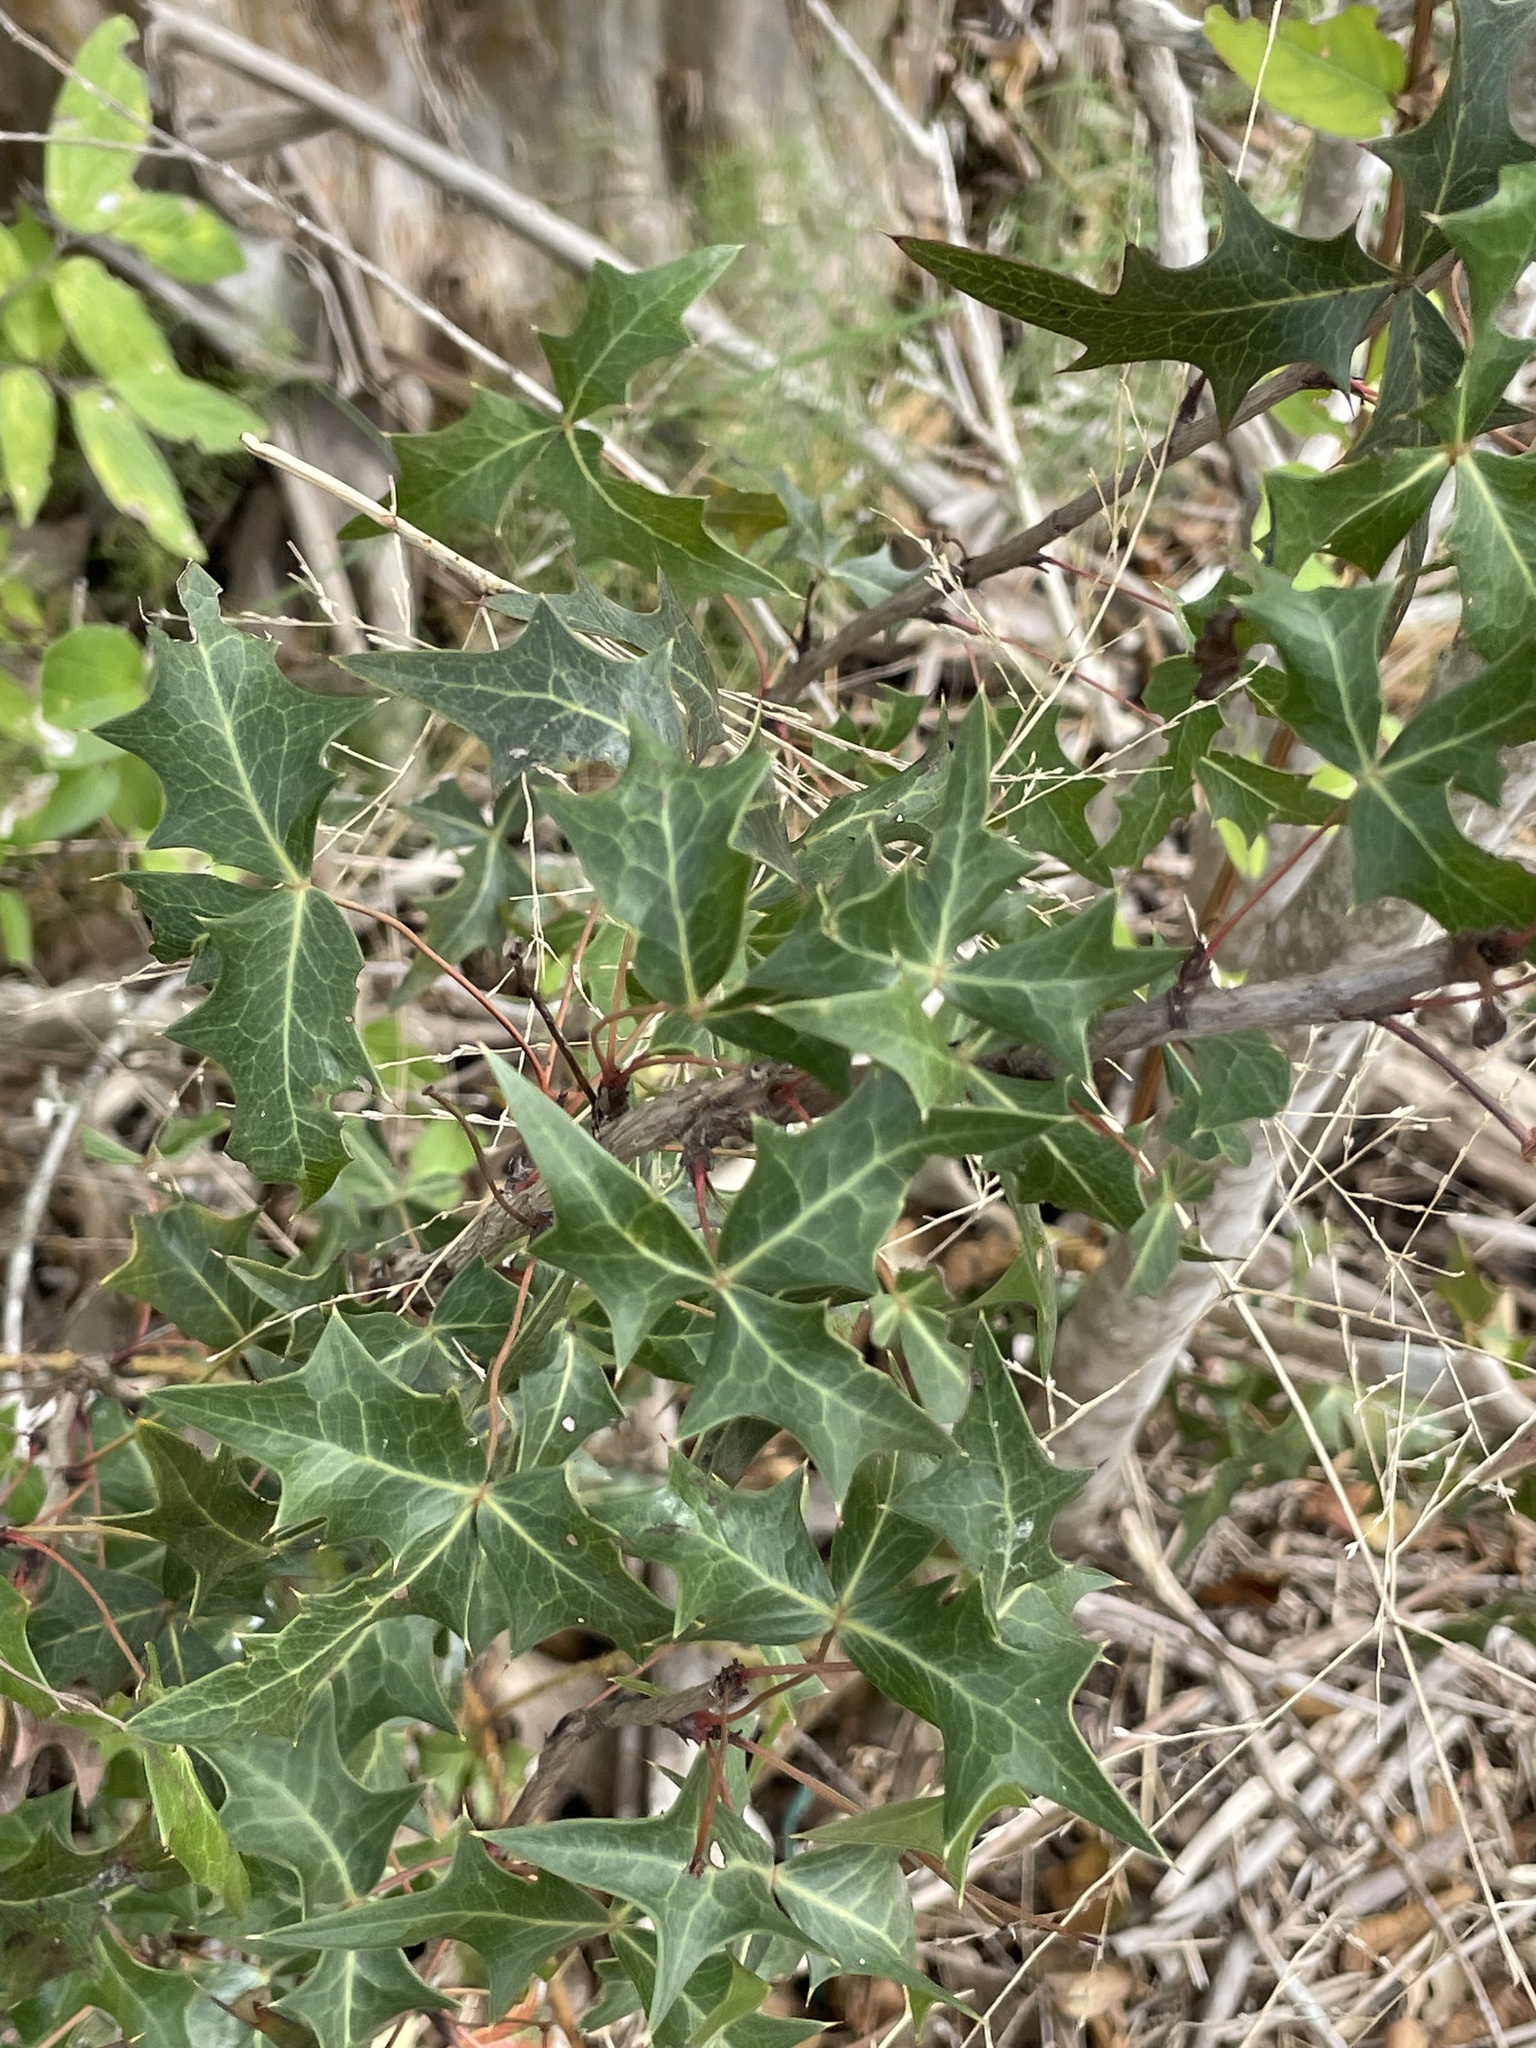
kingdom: Plantae
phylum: Tracheophyta
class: Magnoliopsida
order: Ranunculales
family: Berberidaceae
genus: Alloberberis
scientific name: Alloberberis trifoliolata
